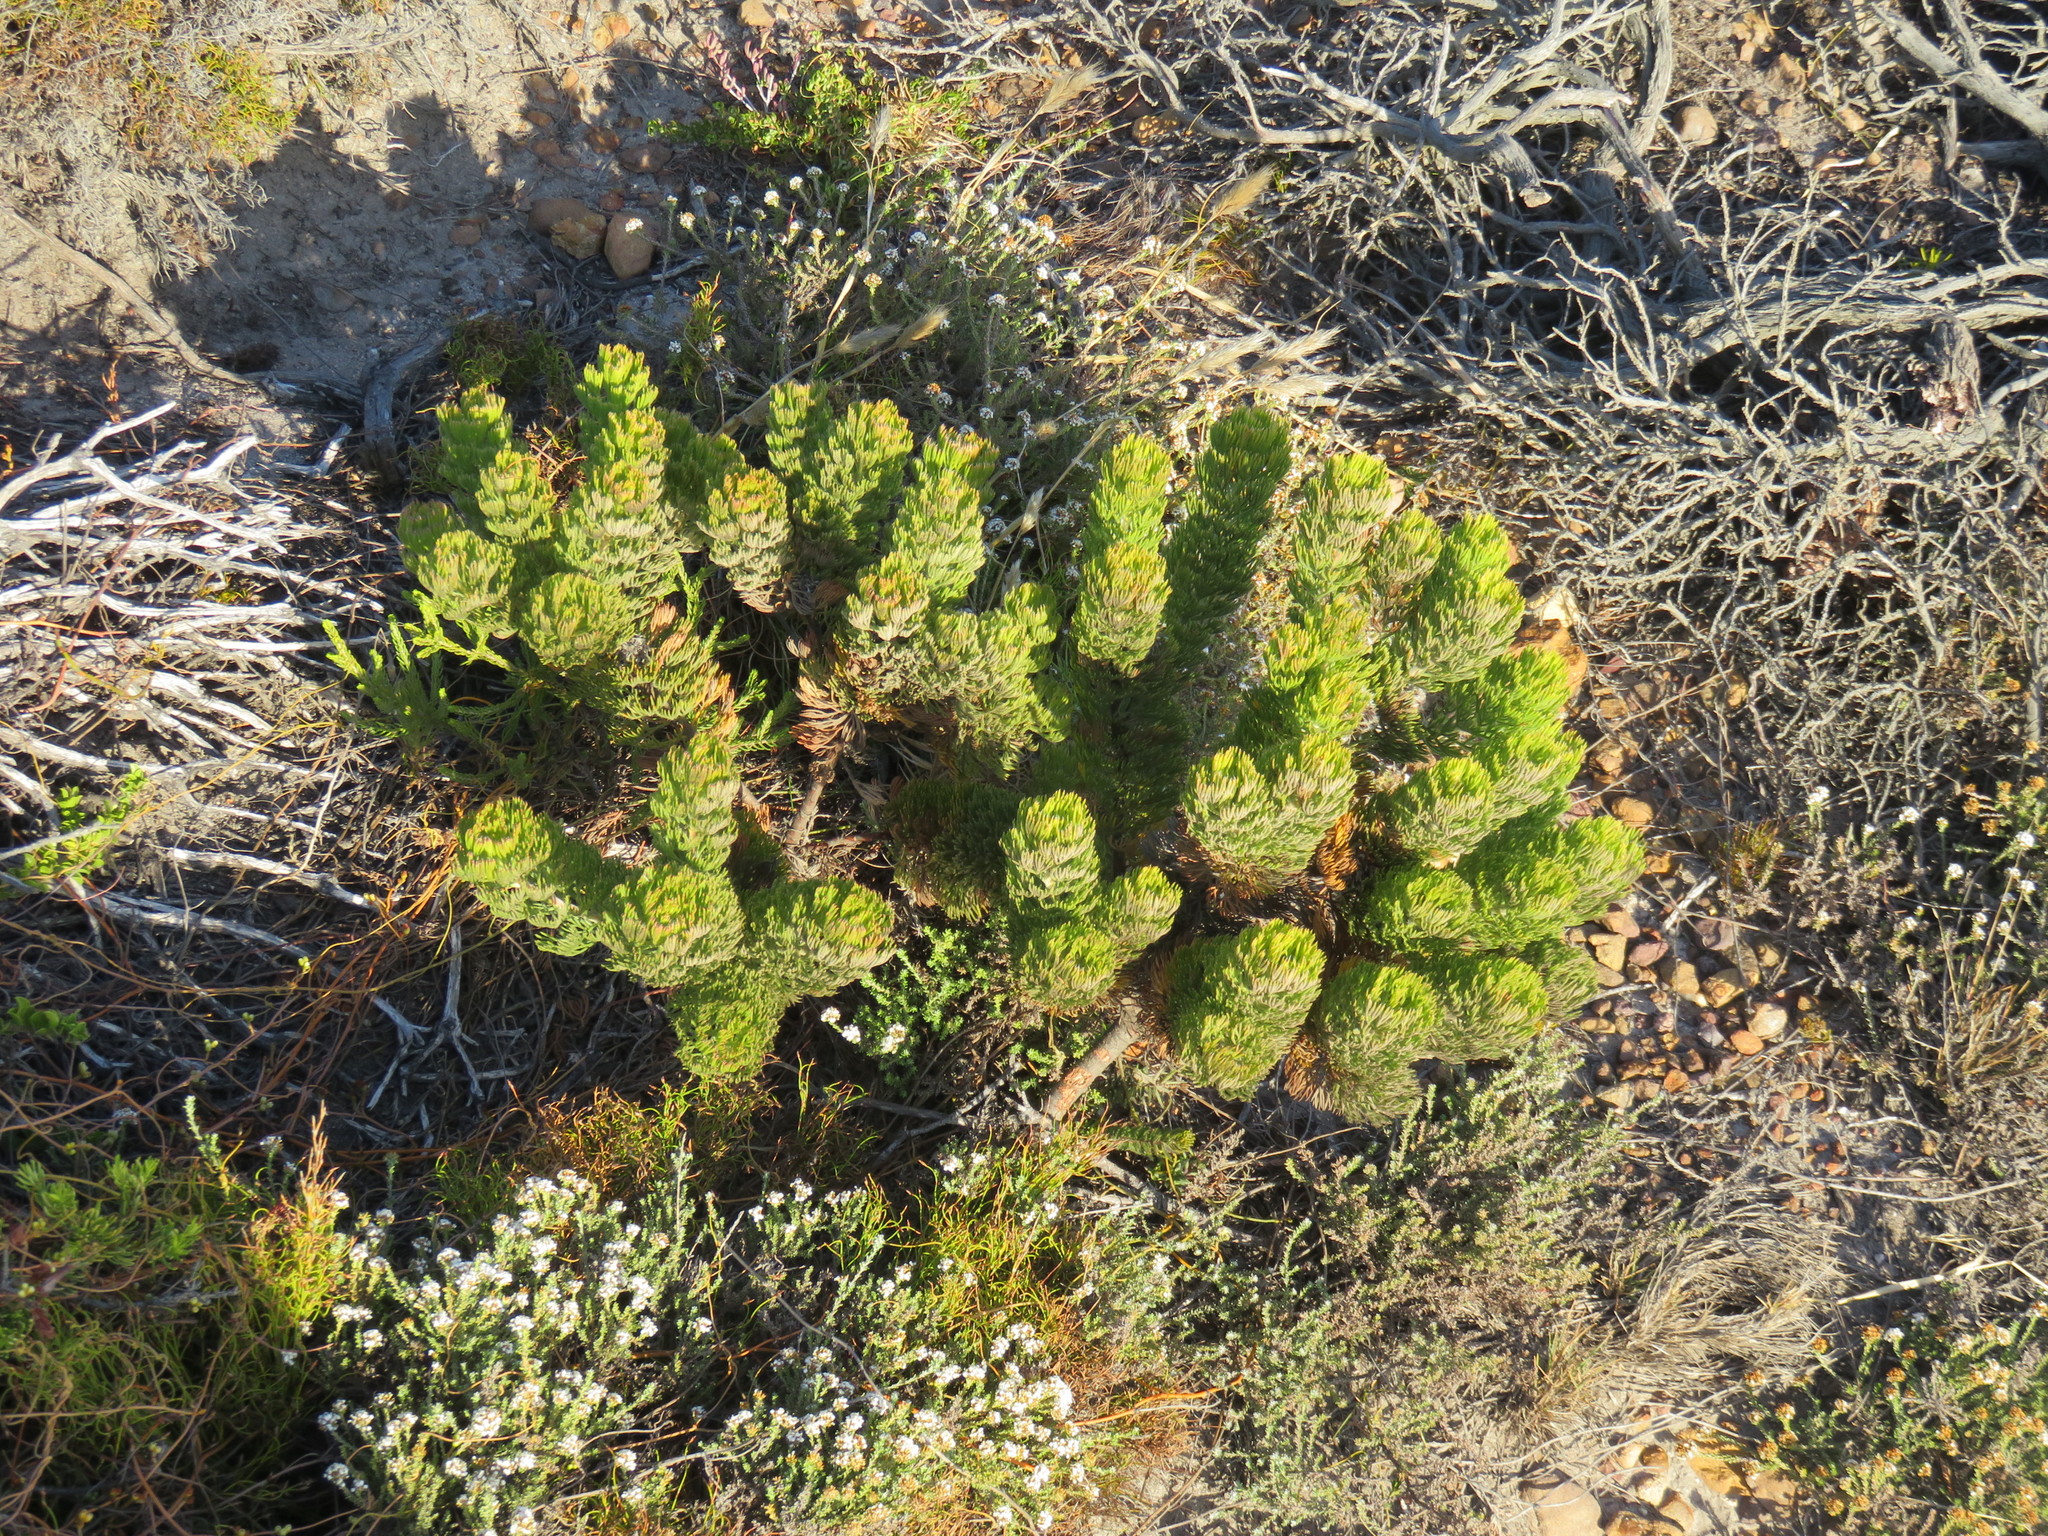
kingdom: Plantae
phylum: Tracheophyta
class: Magnoliopsida
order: Proteales
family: Proteaceae
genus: Serruria
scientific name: Serruria villosa
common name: Golden spiderhead
